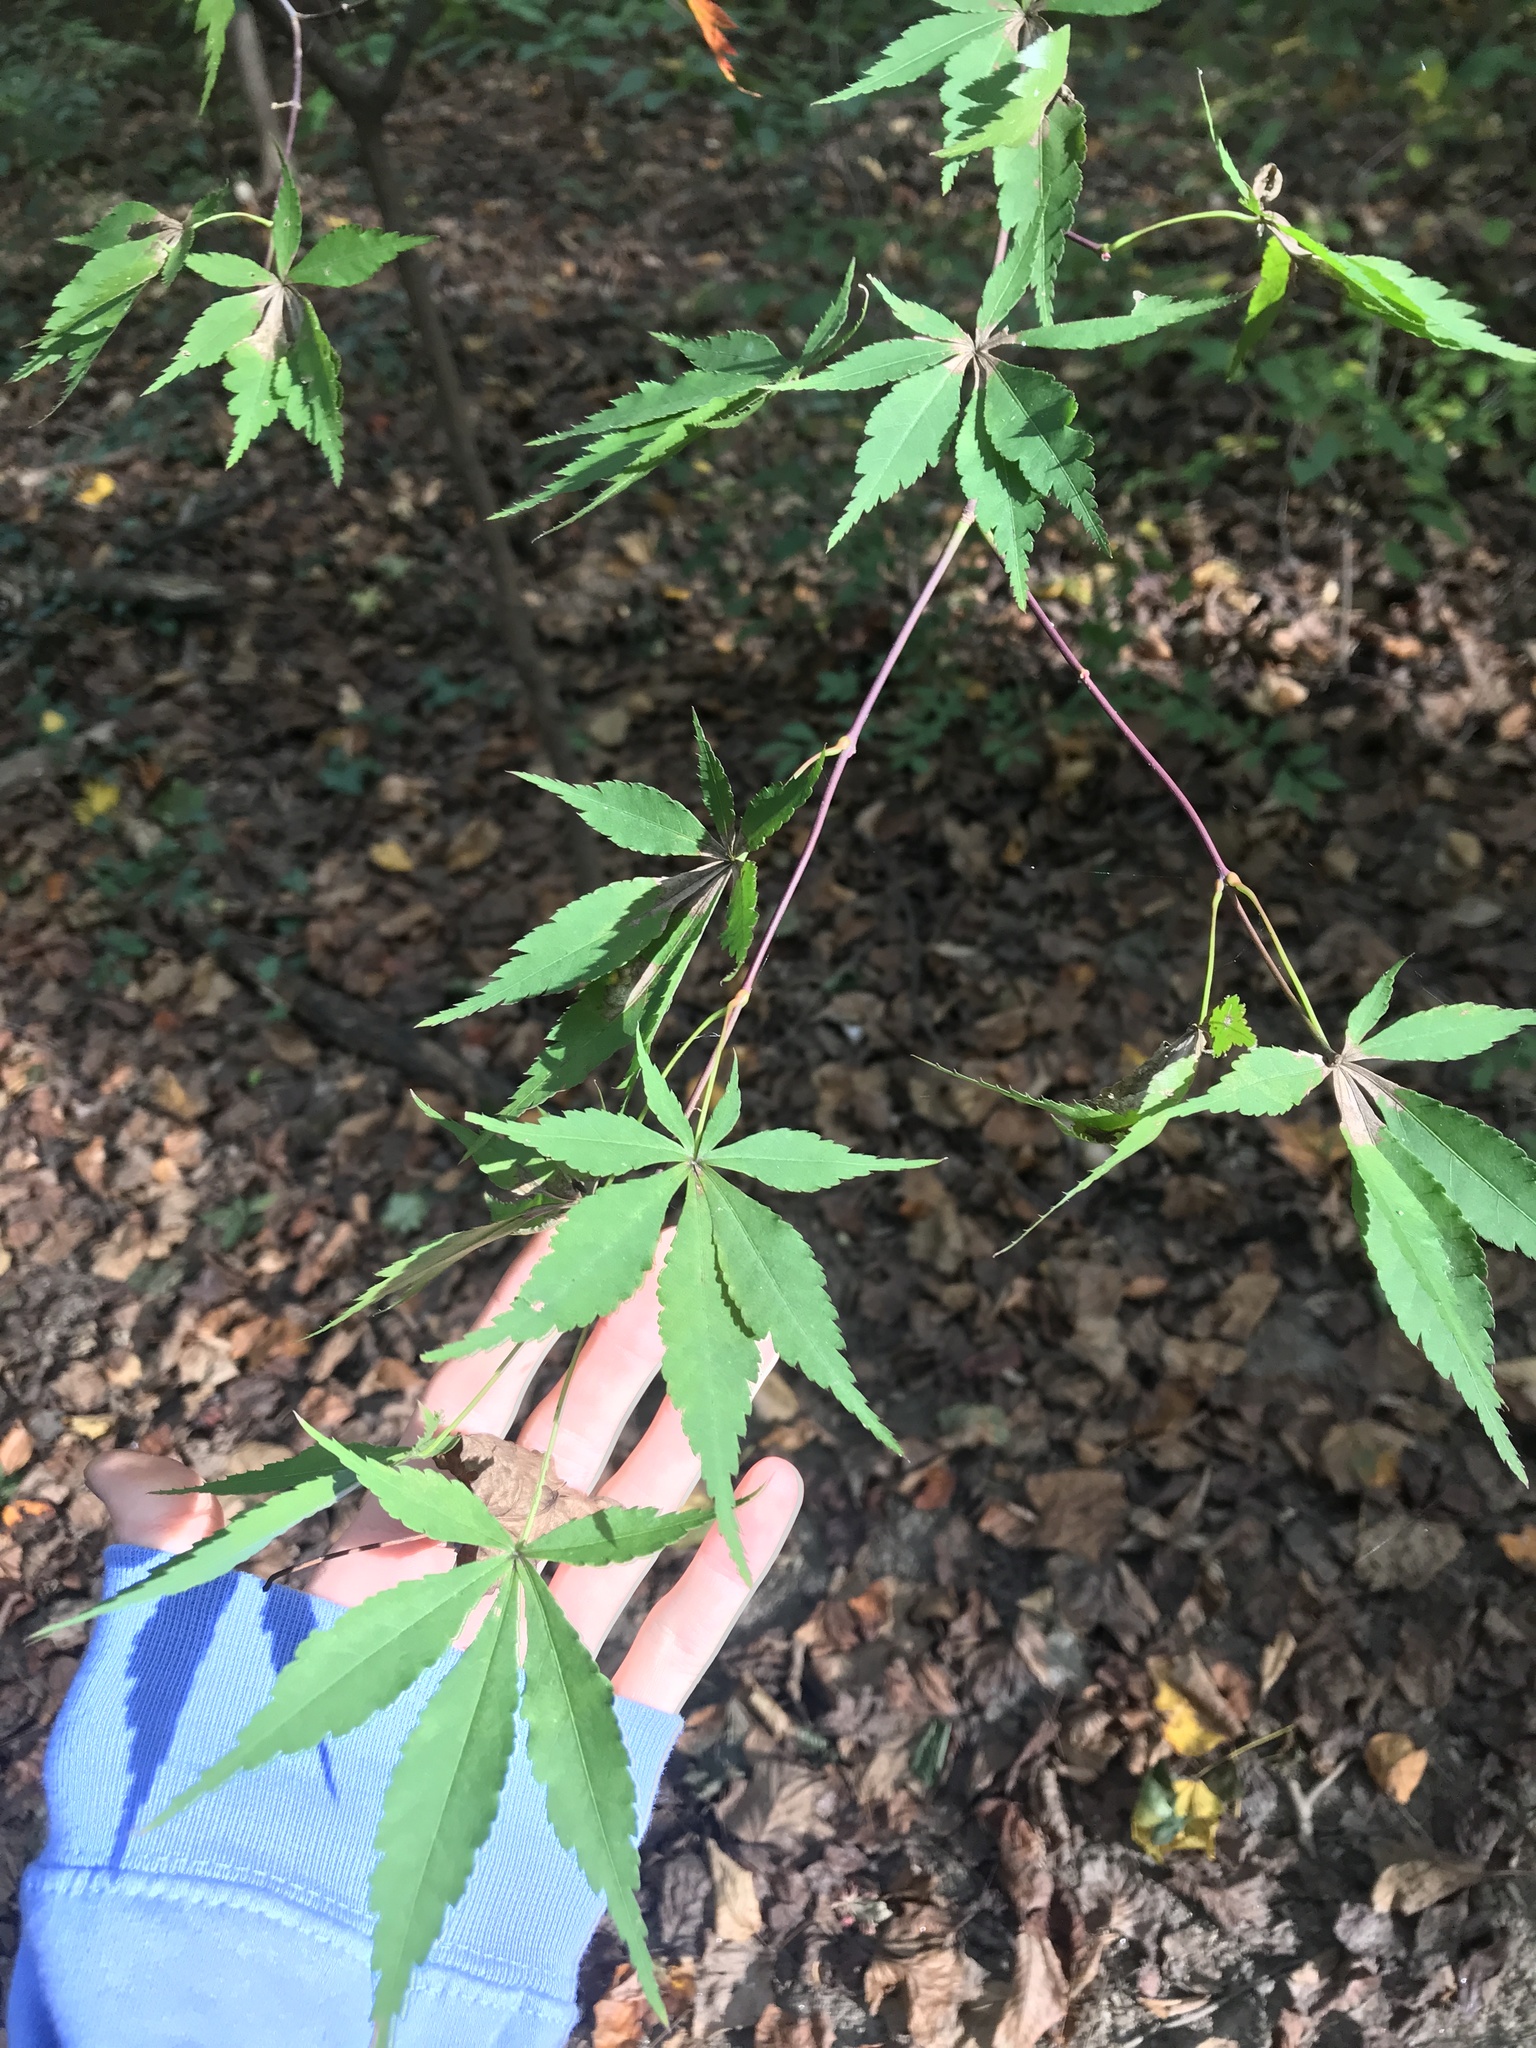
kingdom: Plantae
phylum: Tracheophyta
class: Magnoliopsida
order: Sapindales
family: Sapindaceae
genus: Acer
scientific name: Acer palmatum
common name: Japanese maple
